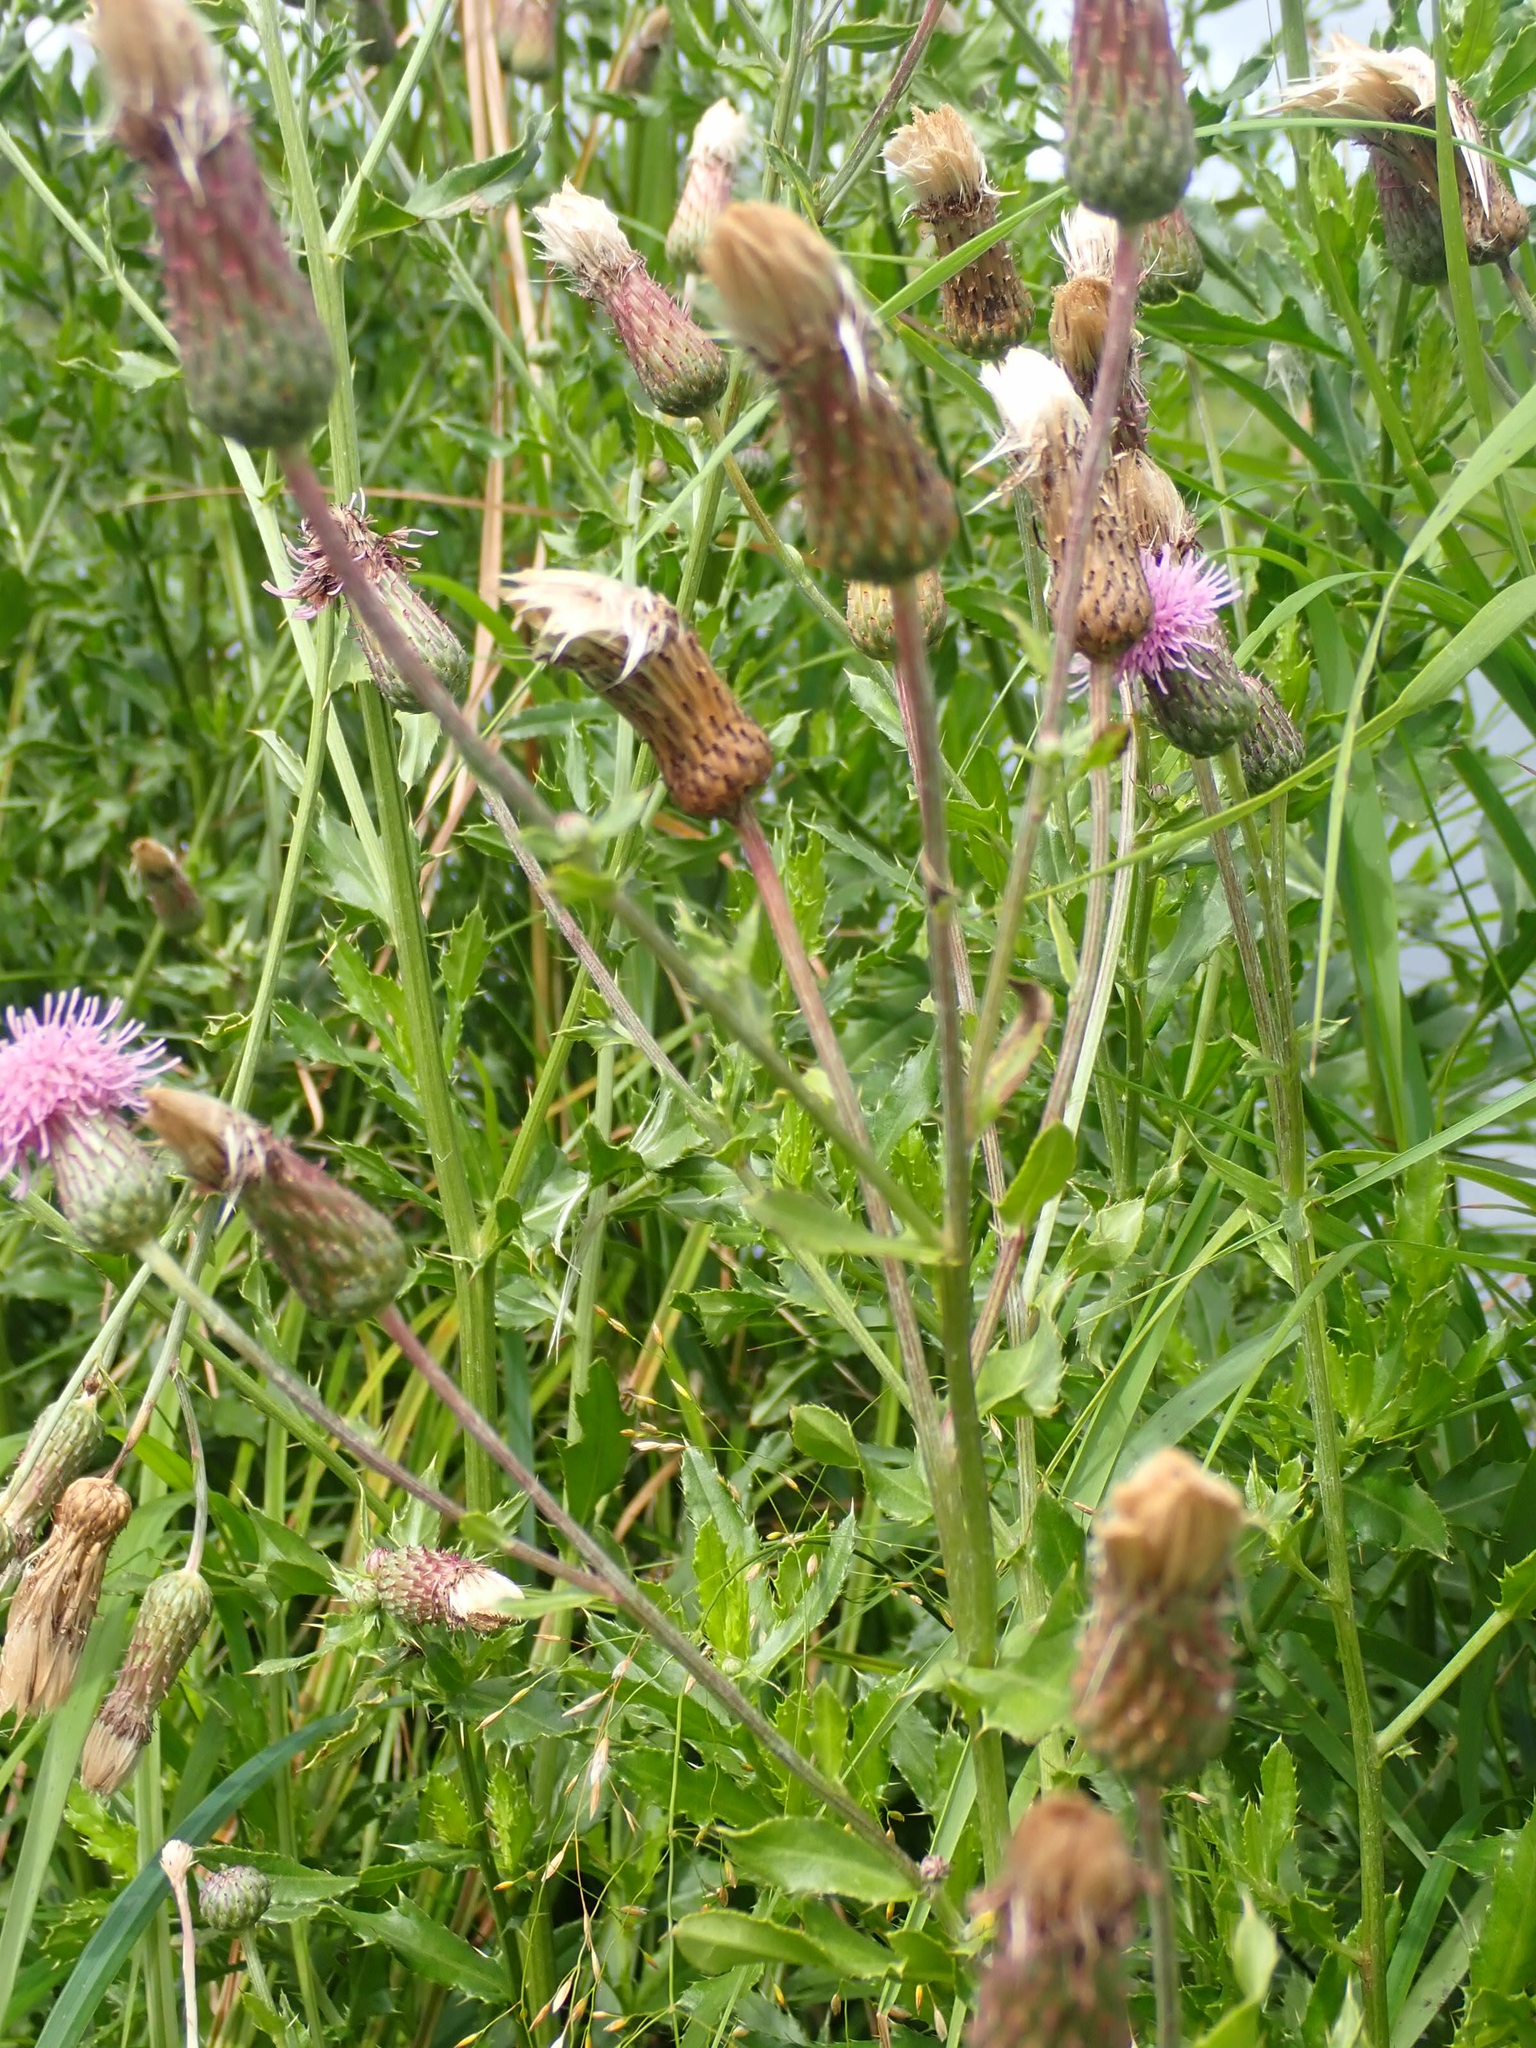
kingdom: Plantae
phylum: Tracheophyta
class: Magnoliopsida
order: Asterales
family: Asteraceae
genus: Cirsium
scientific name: Cirsium arvense
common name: Creeping thistle
